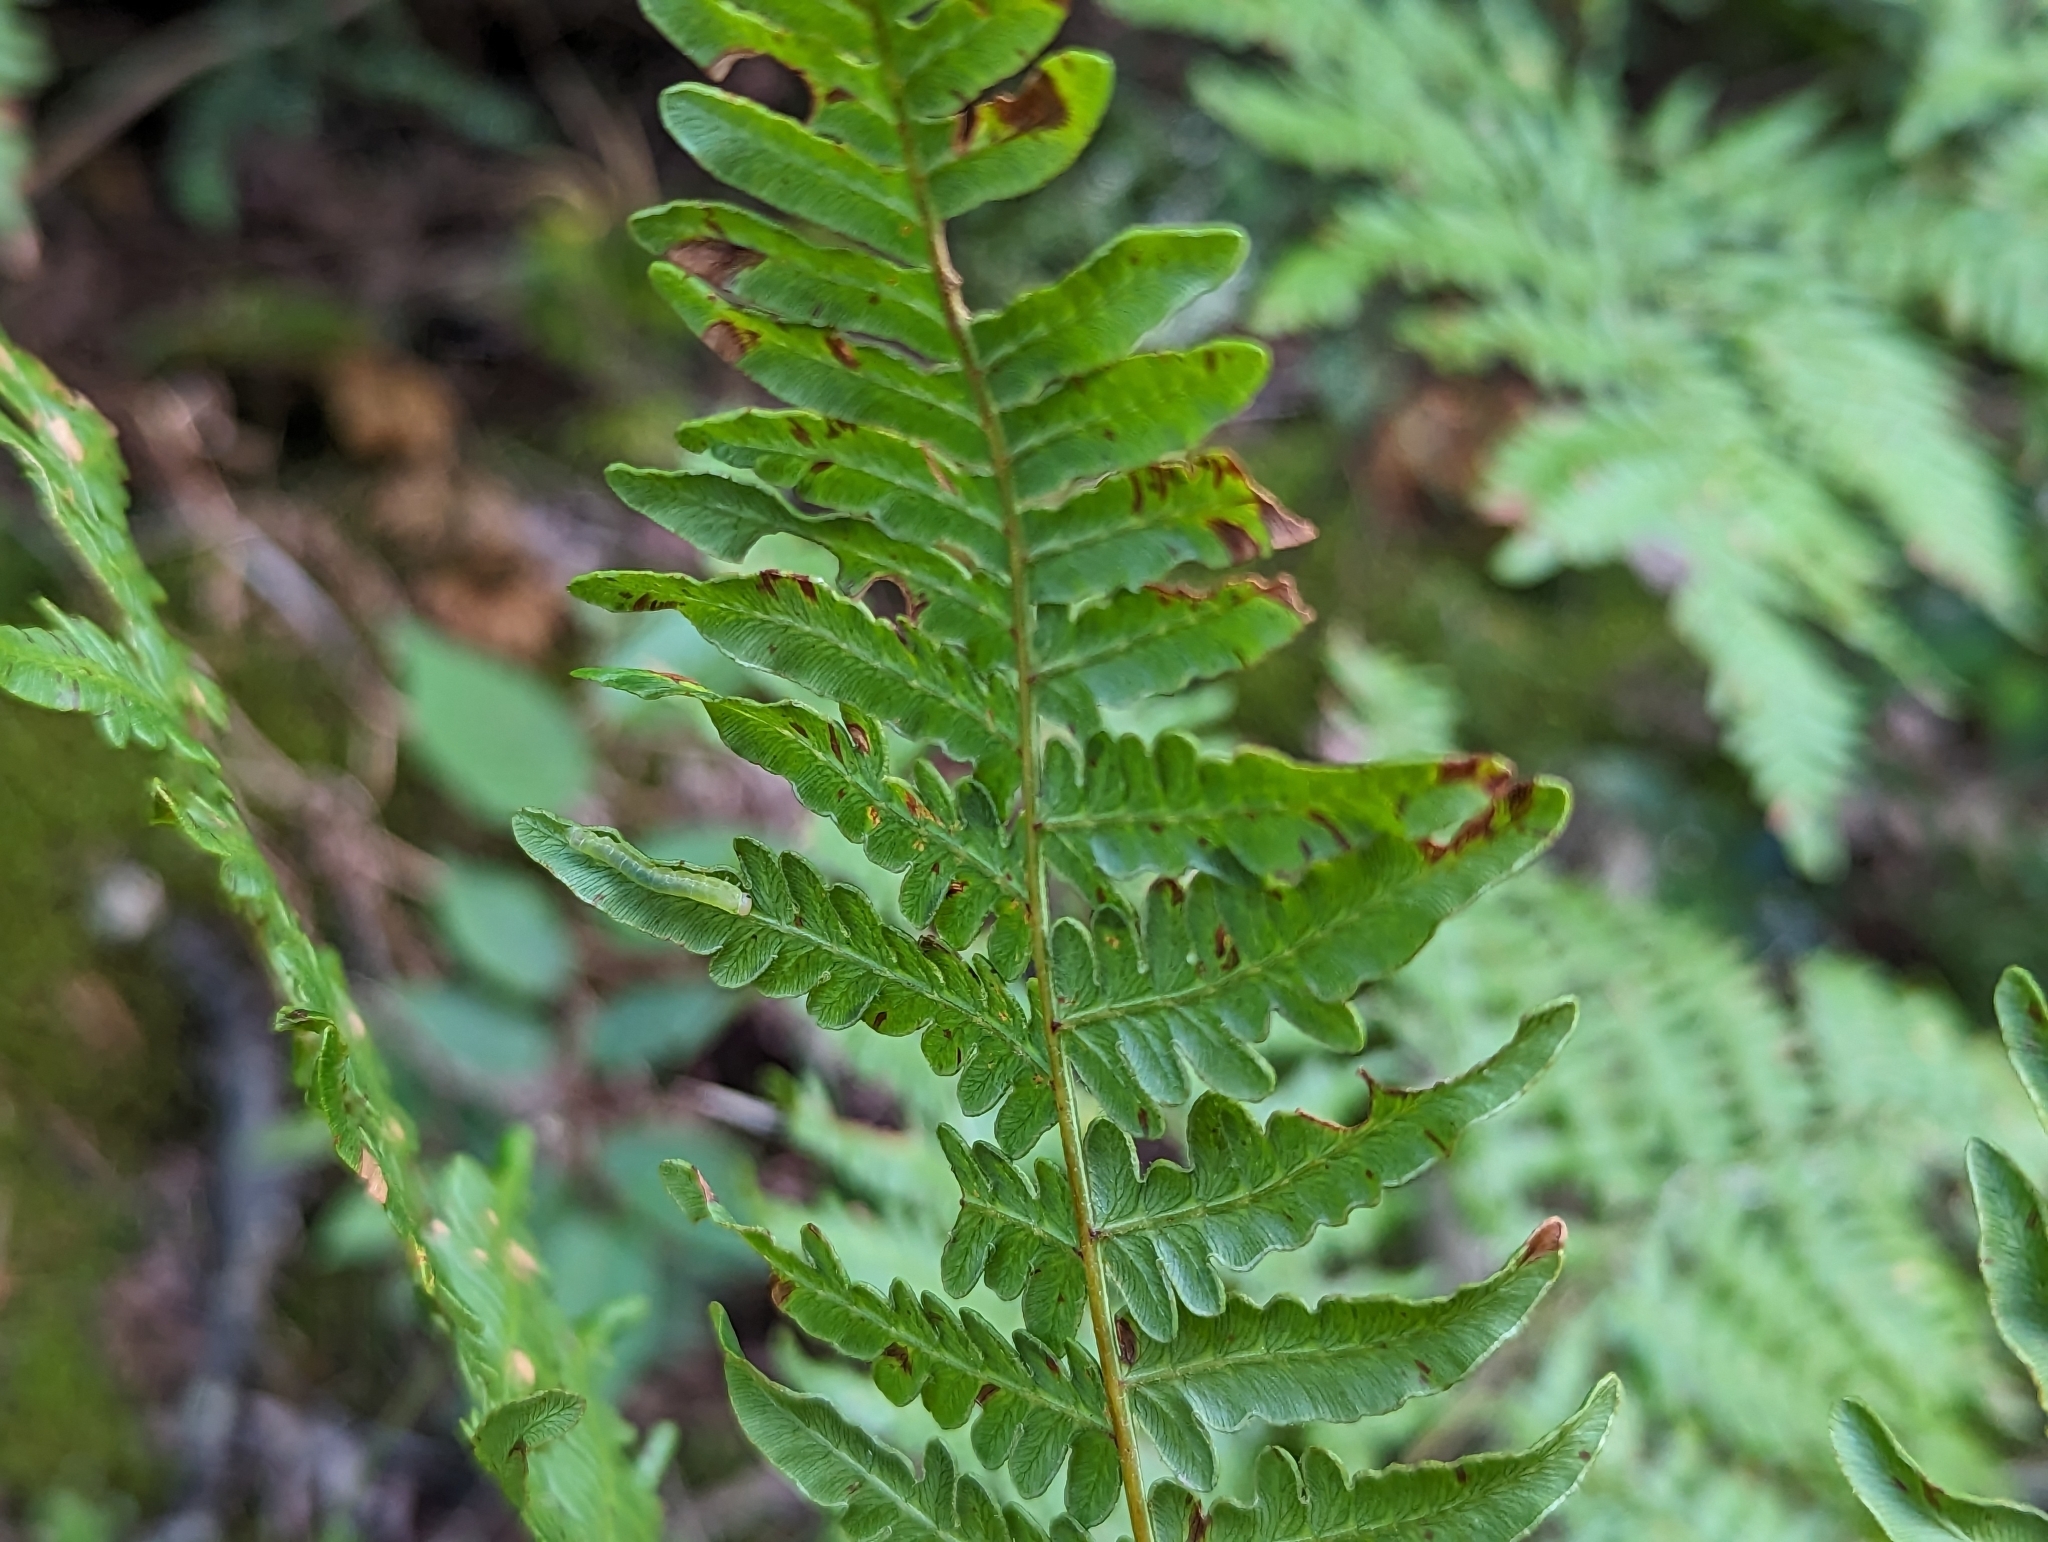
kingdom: Plantae
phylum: Tracheophyta
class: Polypodiopsida
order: Polypodiales
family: Dennstaedtiaceae
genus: Pteridium
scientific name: Pteridium aquilinum
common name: Bracken
